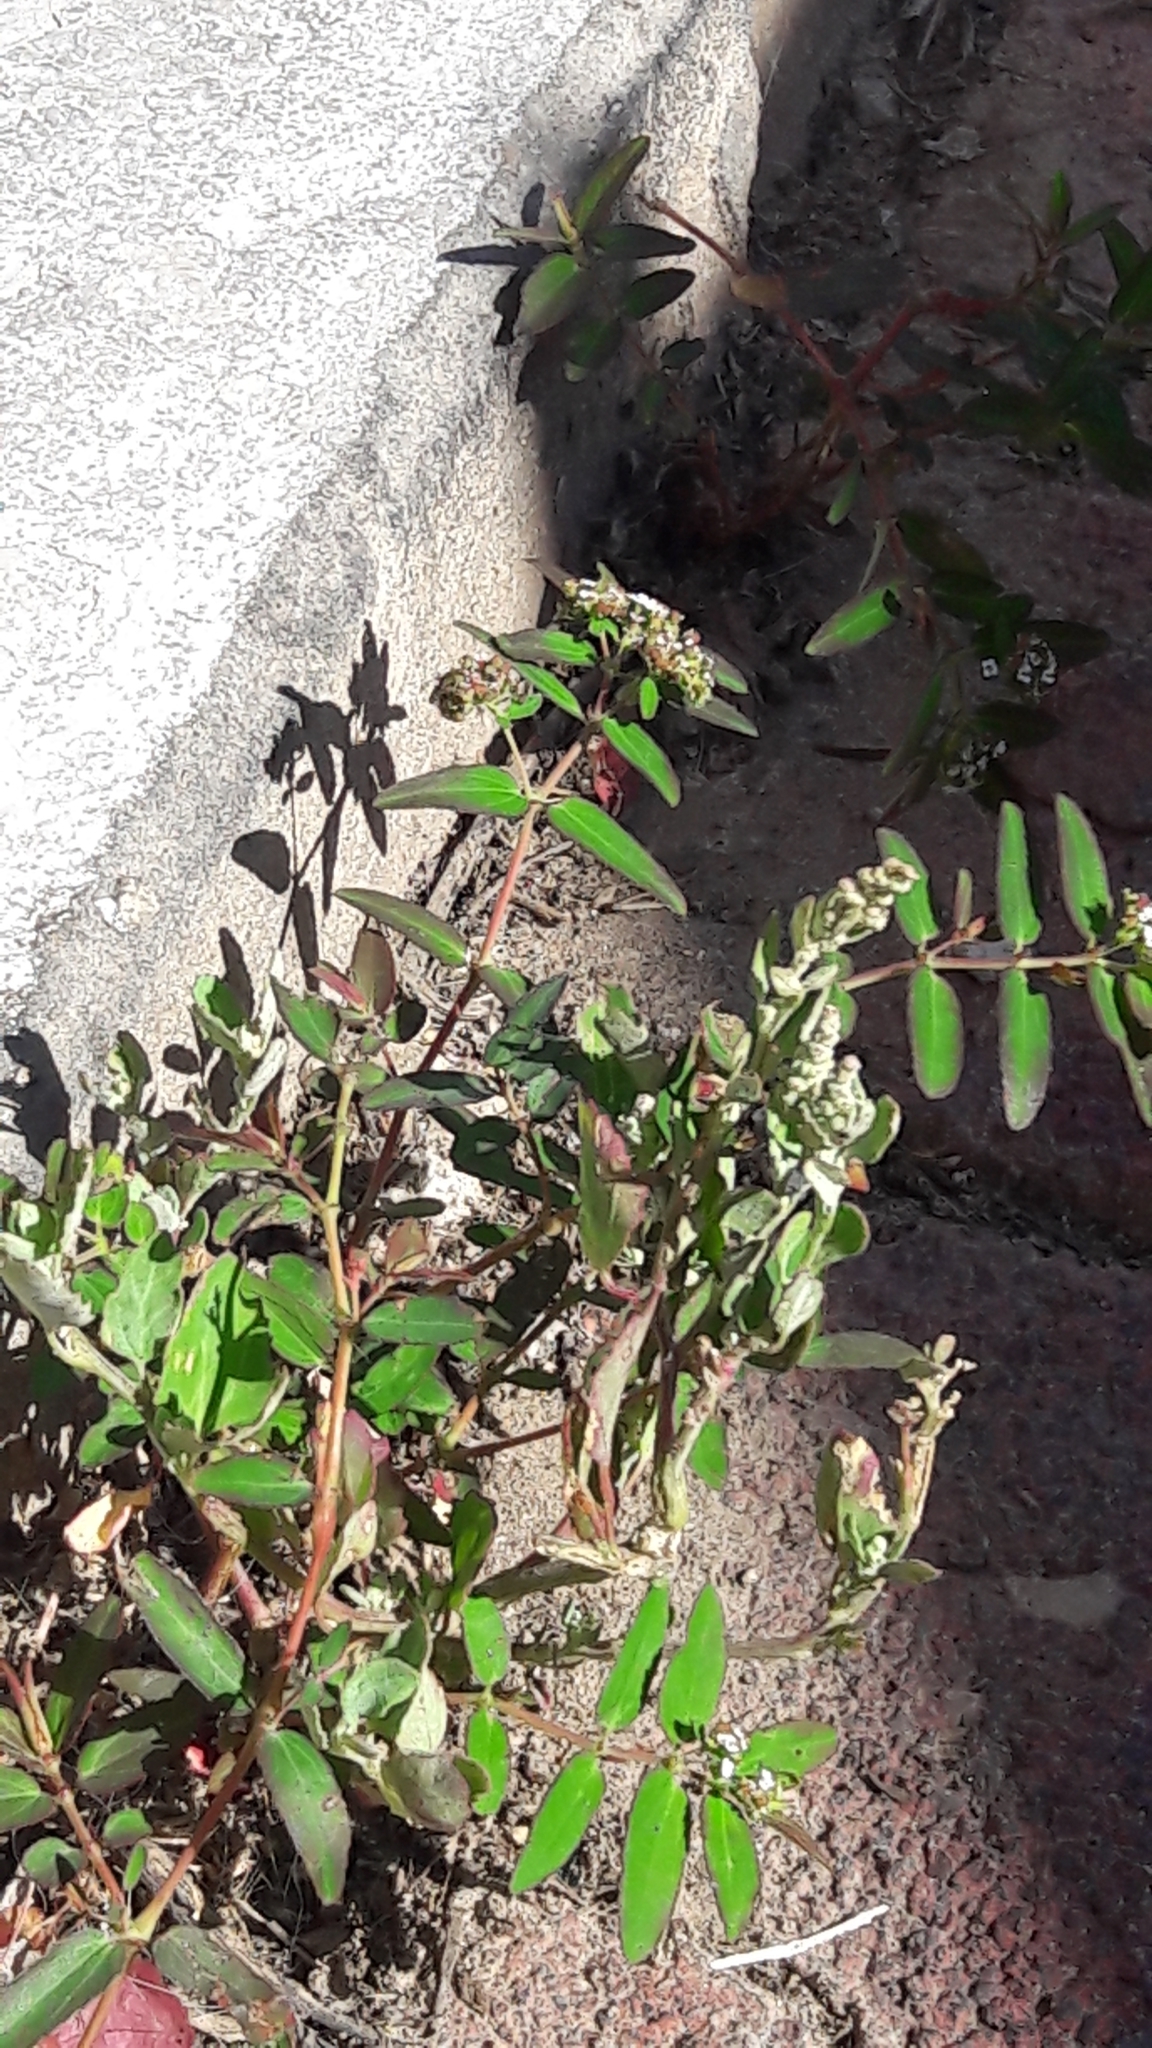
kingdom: Plantae
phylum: Tracheophyta
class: Magnoliopsida
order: Malpighiales
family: Euphorbiaceae
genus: Euphorbia
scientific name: Euphorbia hypericifolia
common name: Graceful sandmat
